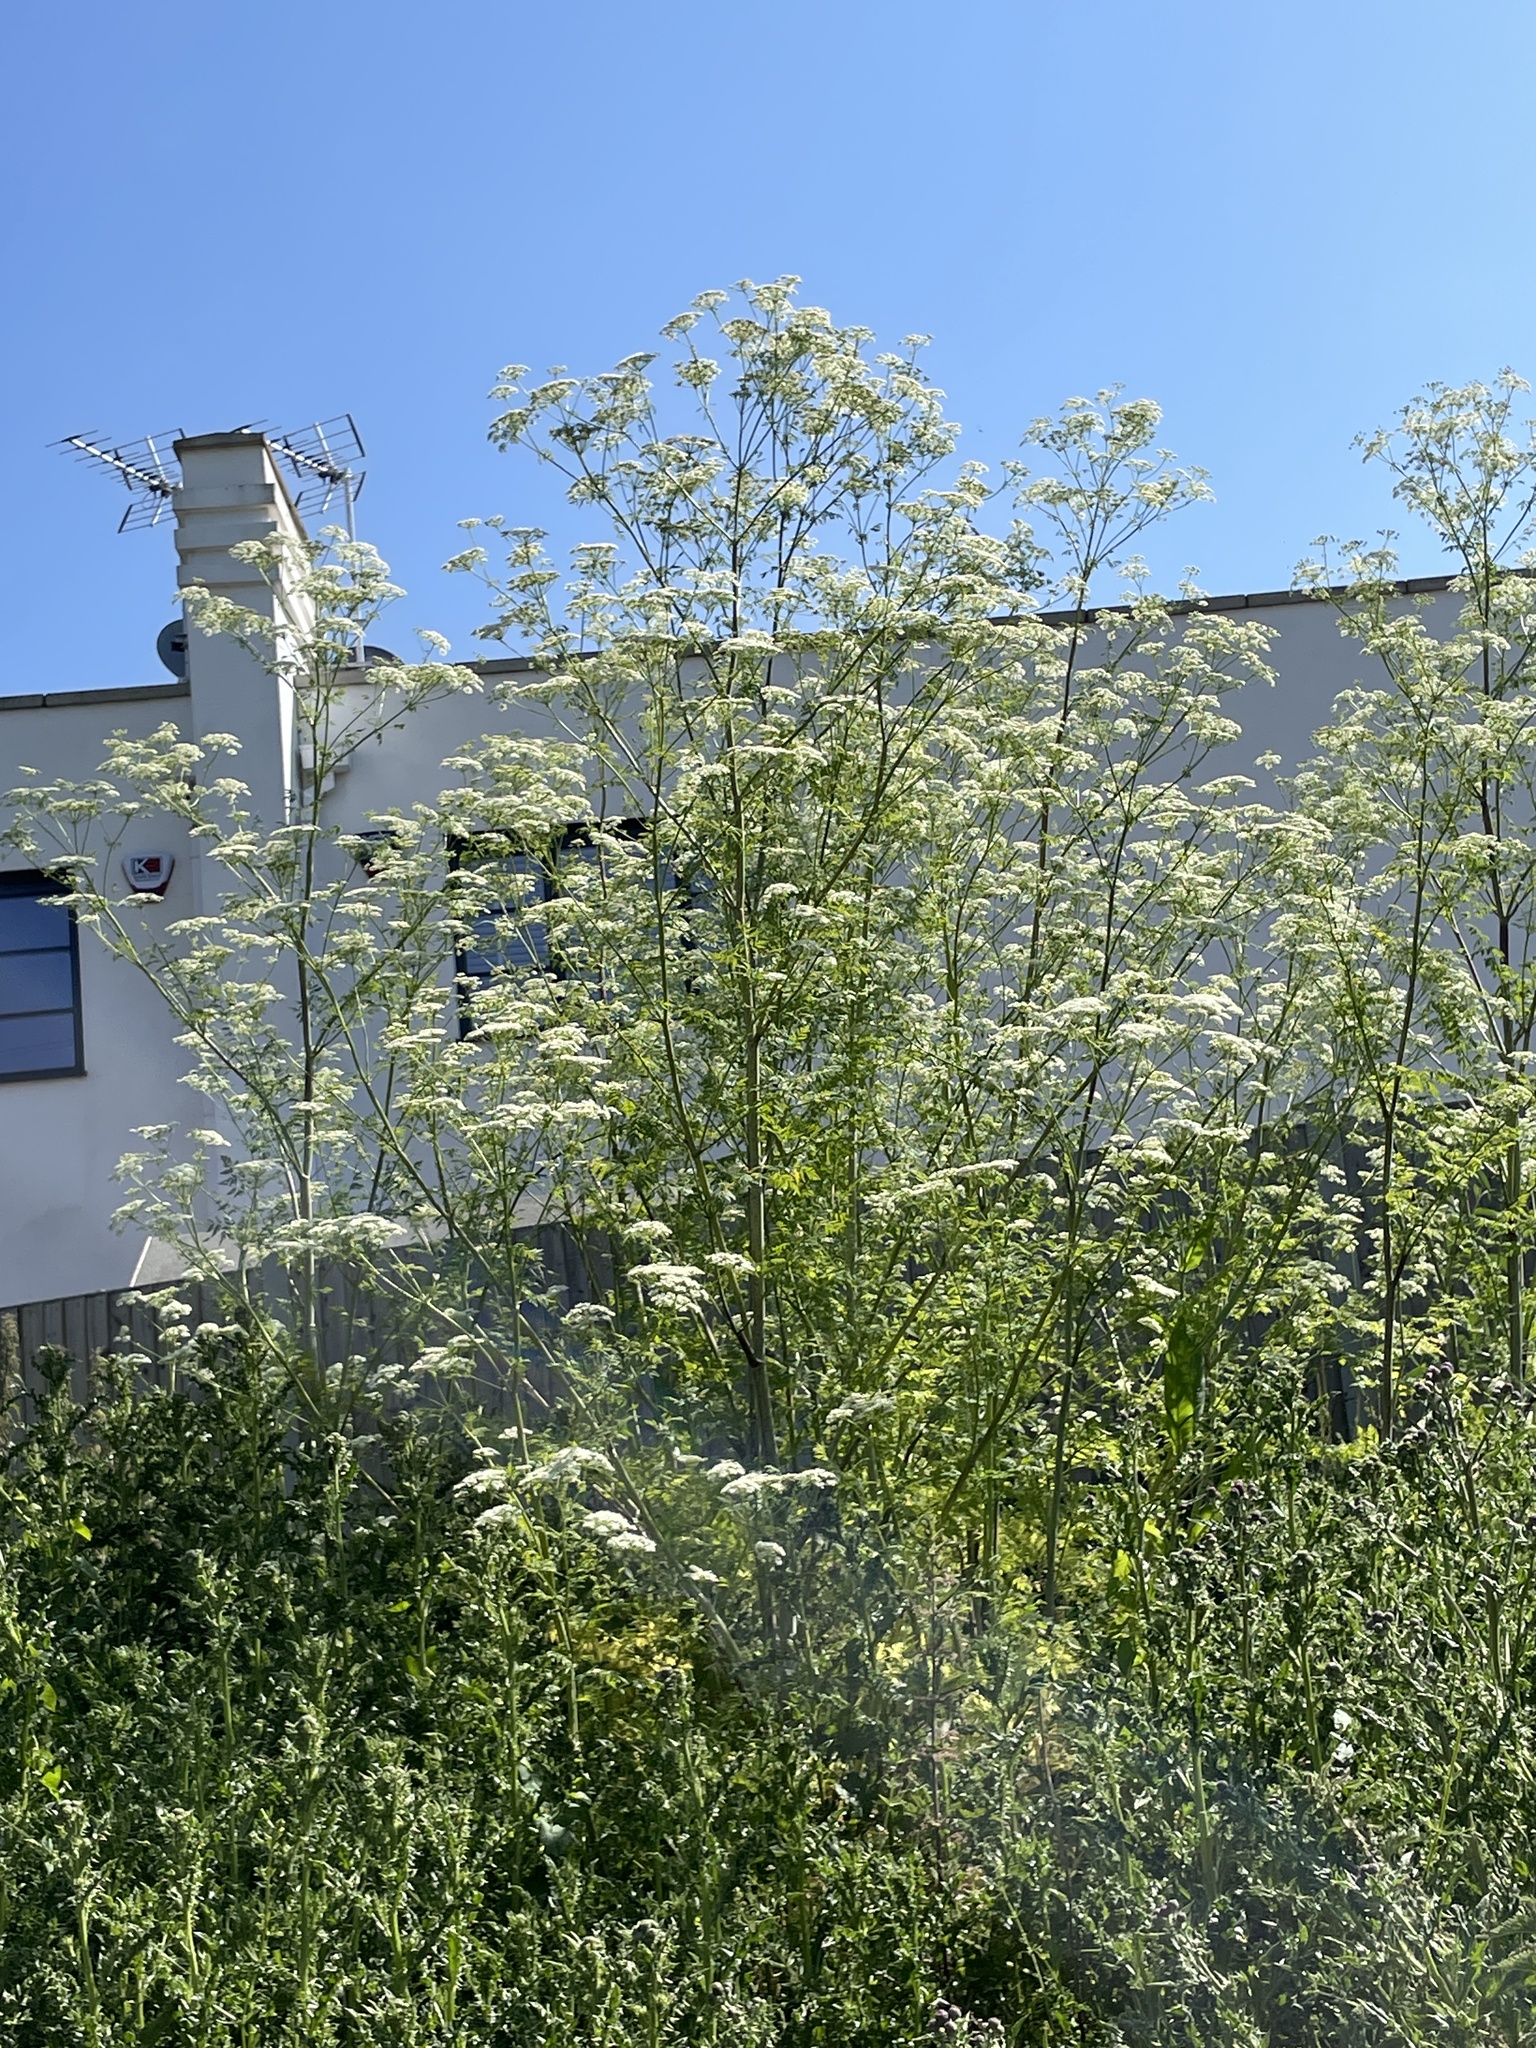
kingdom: Plantae
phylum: Tracheophyta
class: Magnoliopsida
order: Apiales
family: Apiaceae
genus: Conium
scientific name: Conium maculatum
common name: Hemlock
